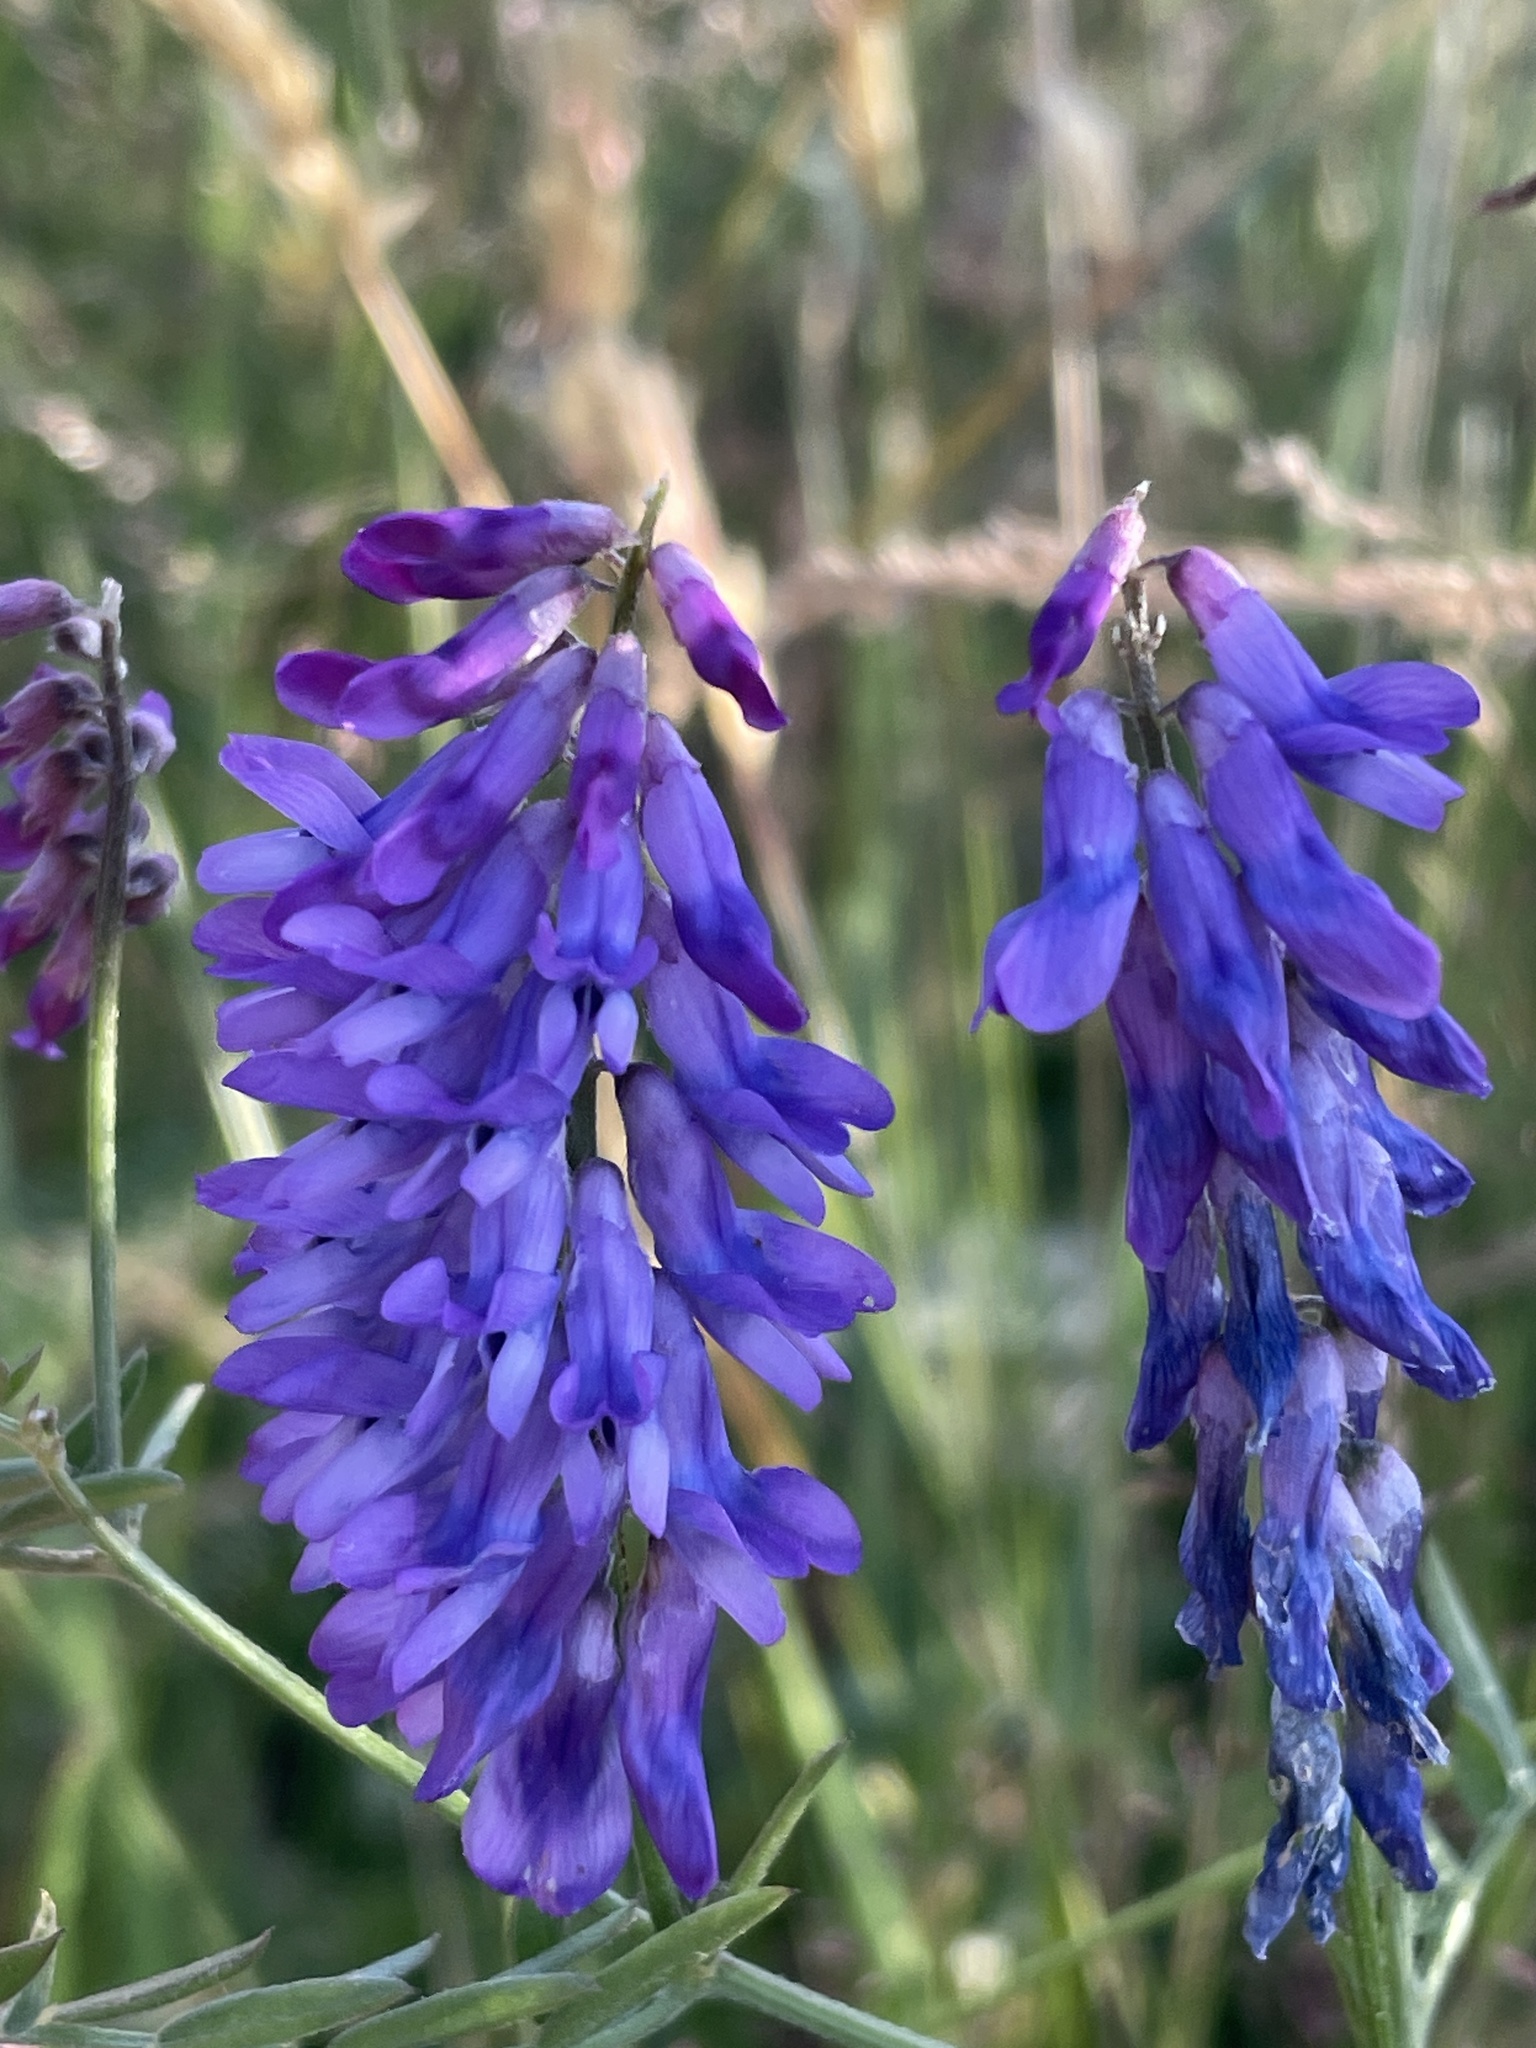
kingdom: Plantae
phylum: Tracheophyta
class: Magnoliopsida
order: Fabales
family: Fabaceae
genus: Vicia
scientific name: Vicia cracca
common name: Bird vetch
